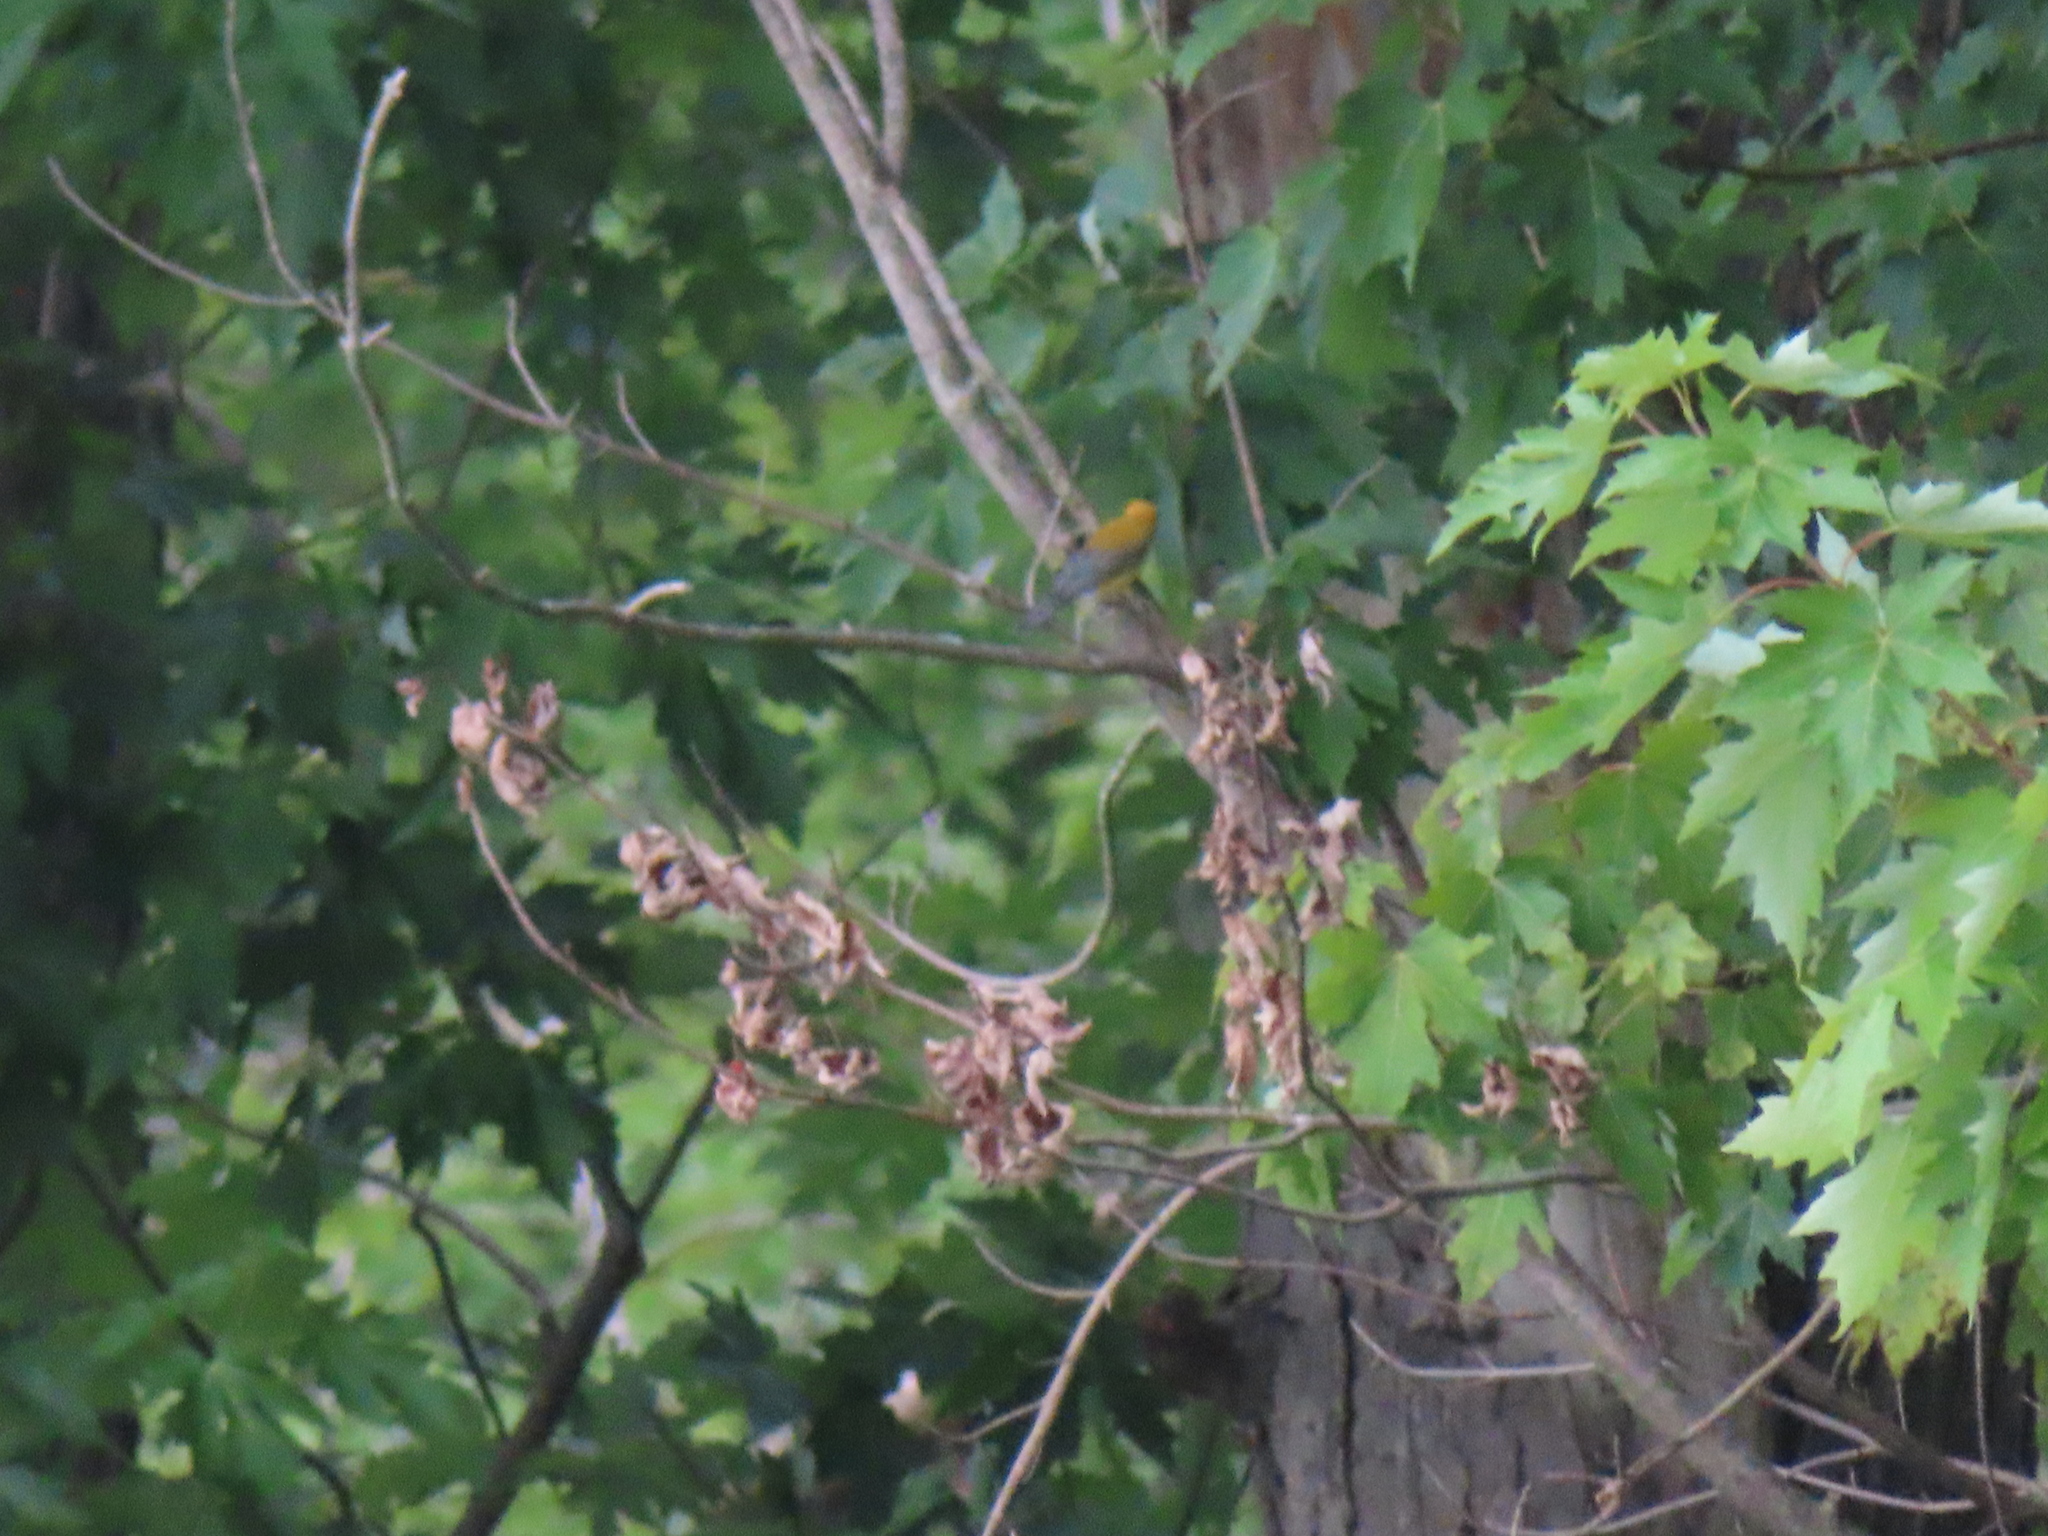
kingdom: Plantae
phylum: Tracheophyta
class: Magnoliopsida
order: Sapindales
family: Sapindaceae
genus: Acer
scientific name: Acer saccharinum
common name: Silver maple
